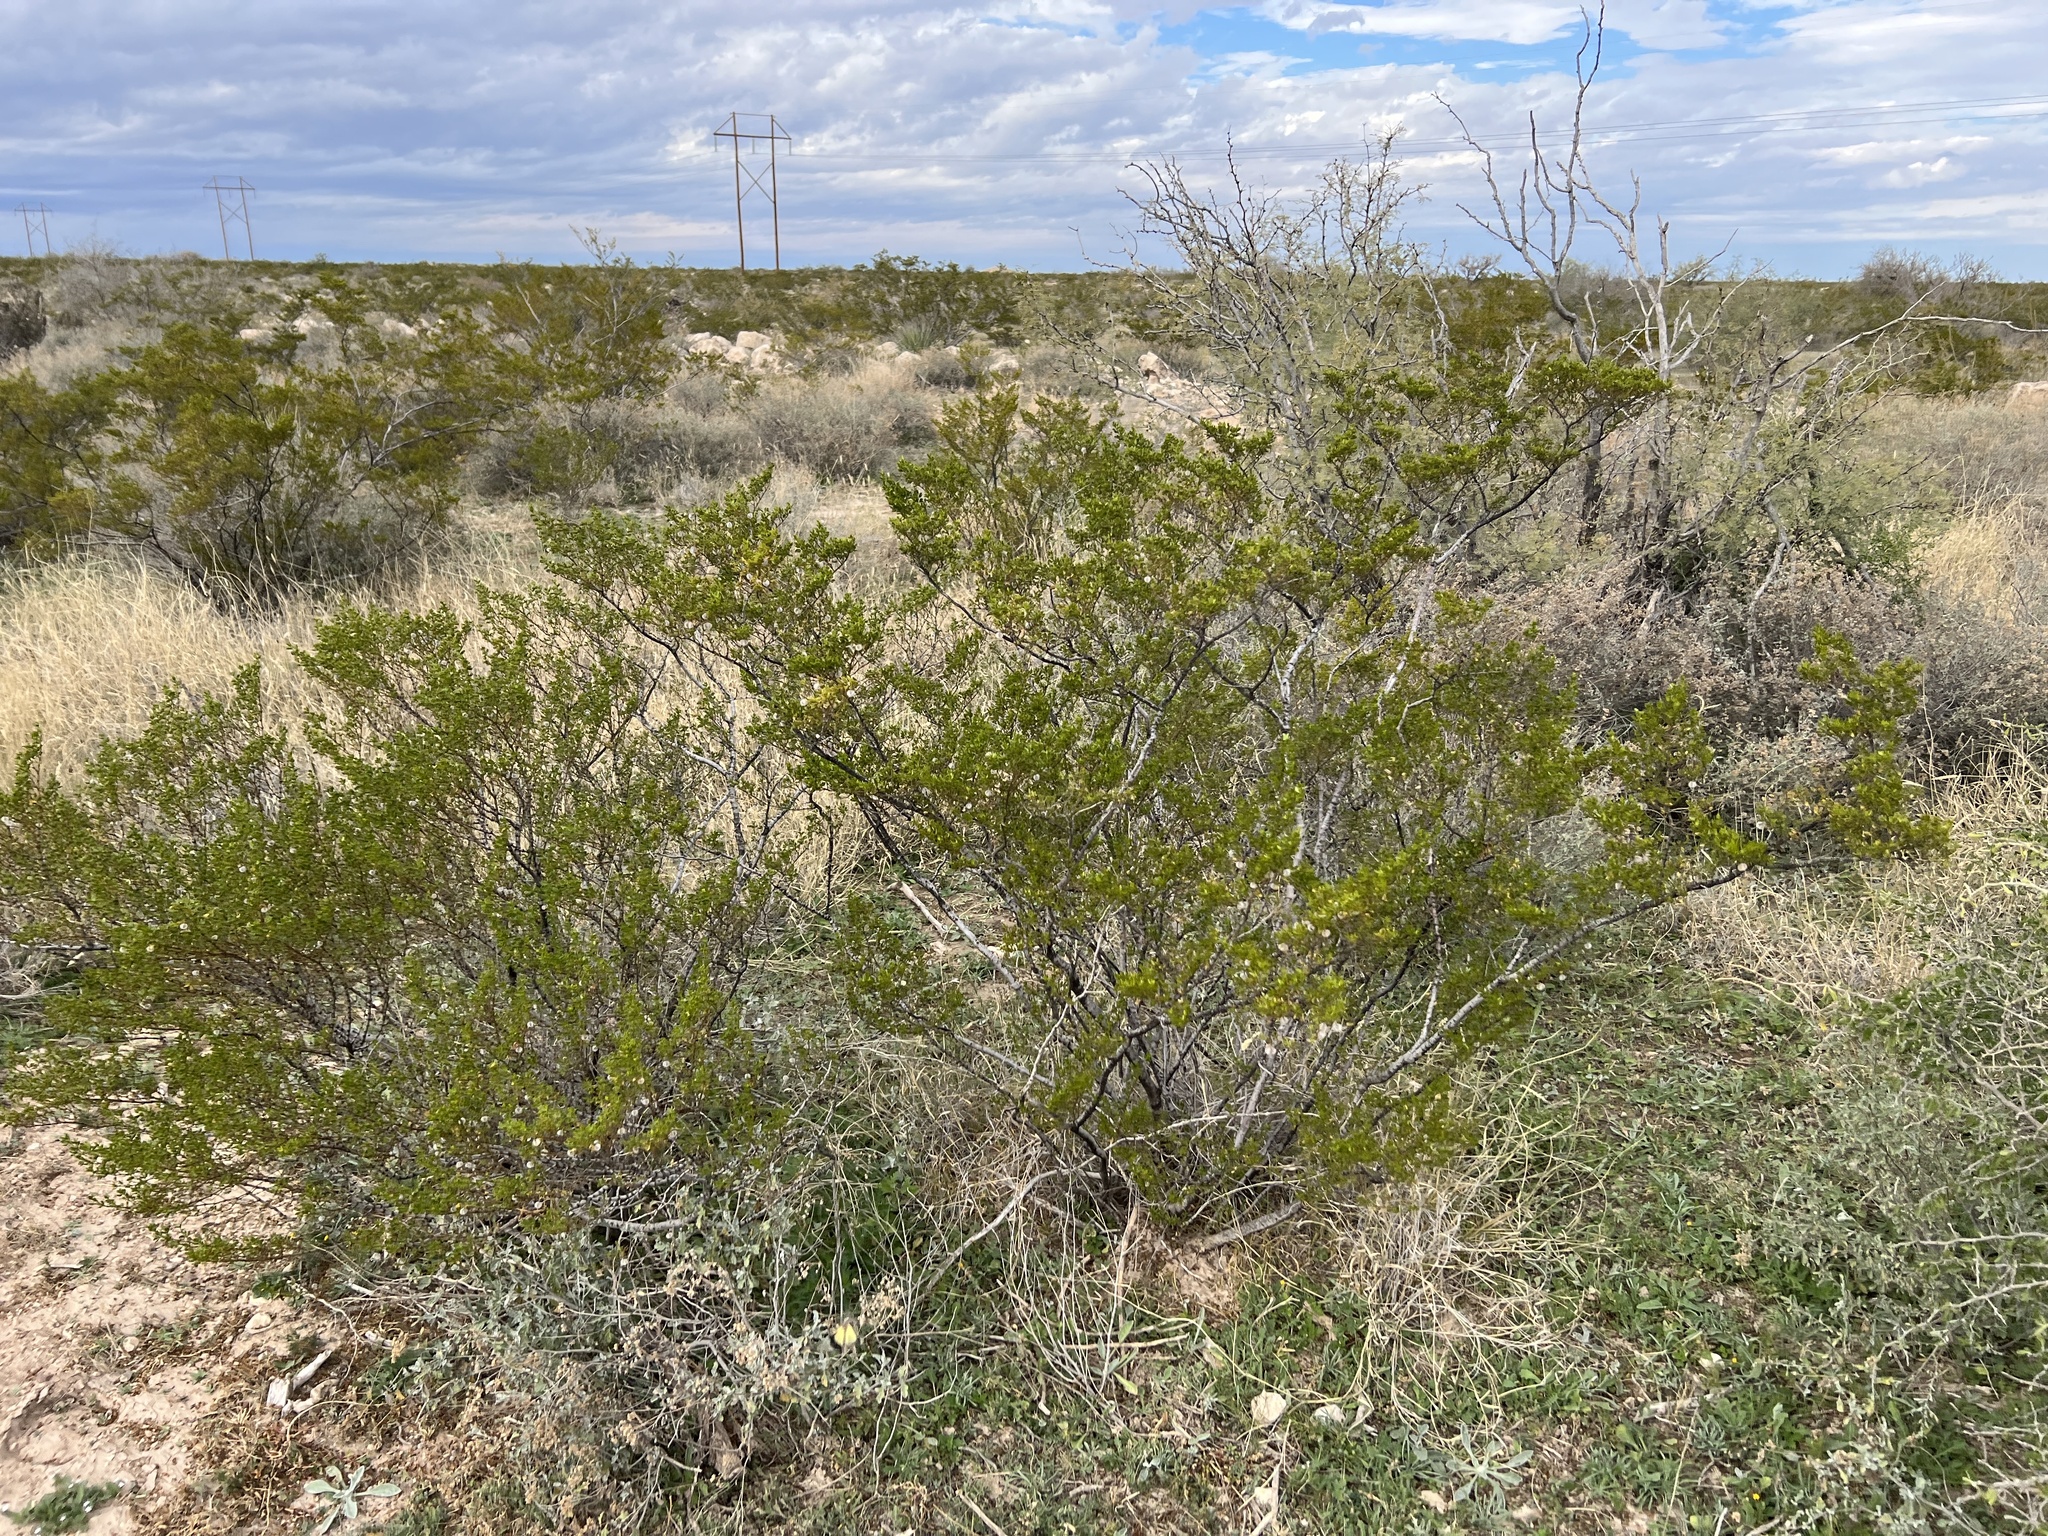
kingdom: Plantae
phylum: Tracheophyta
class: Magnoliopsida
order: Zygophyllales
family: Zygophyllaceae
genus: Larrea
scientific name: Larrea tridentata
